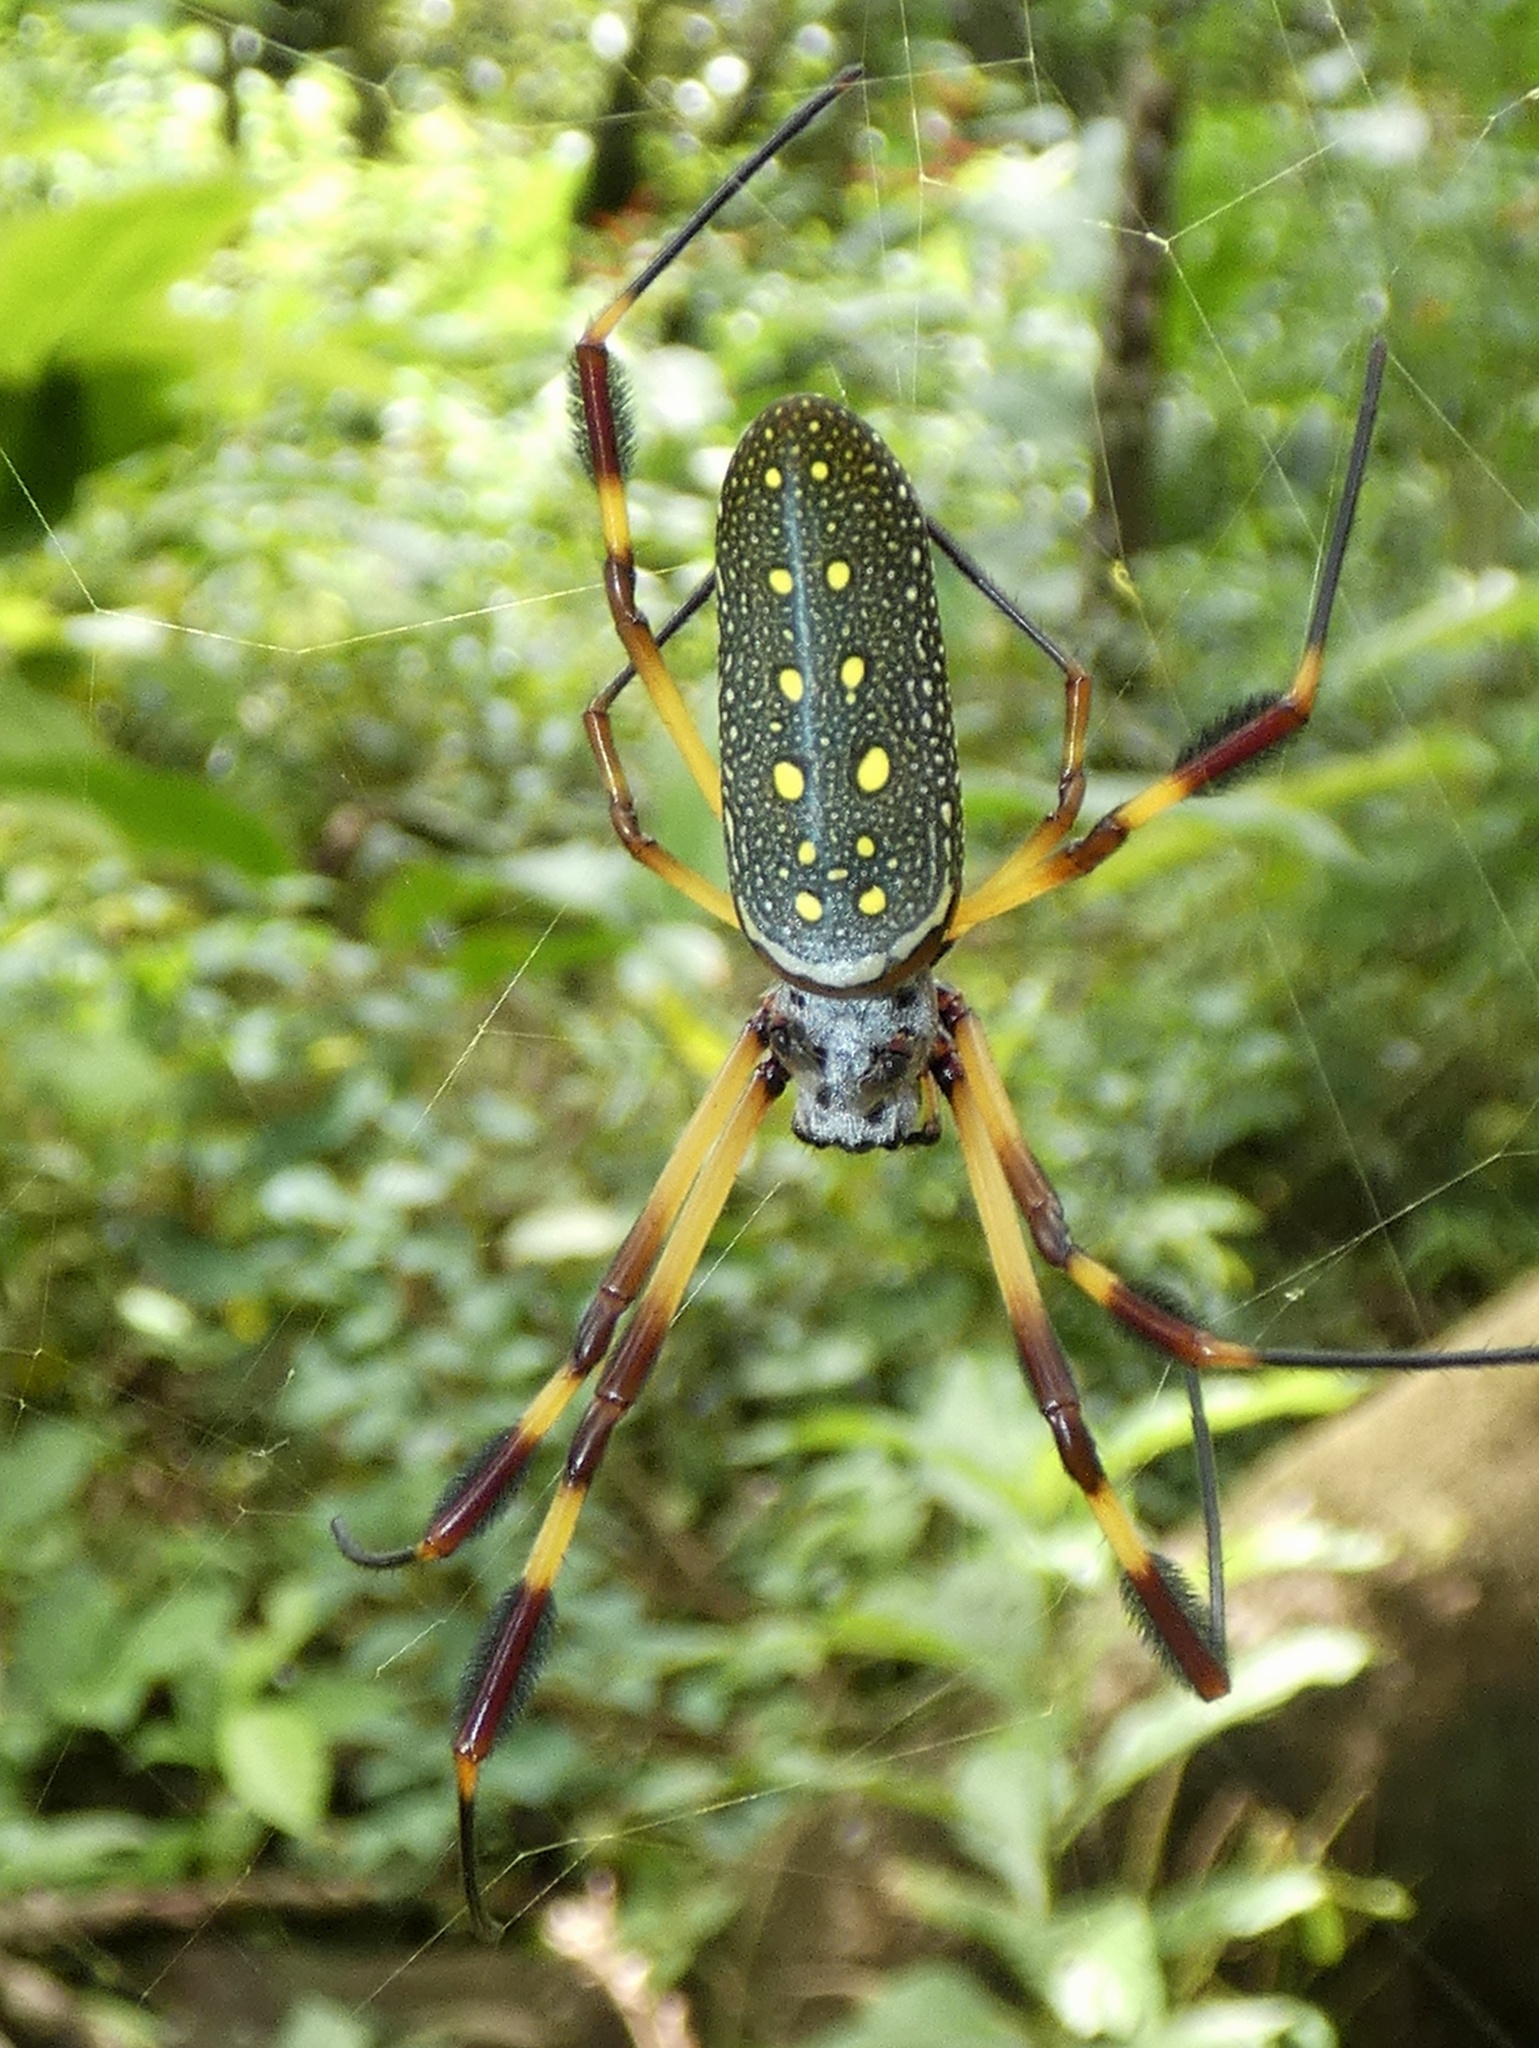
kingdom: Animalia
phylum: Arthropoda
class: Arachnida
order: Araneae
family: Araneidae
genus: Trichonephila
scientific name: Trichonephila clavipes
